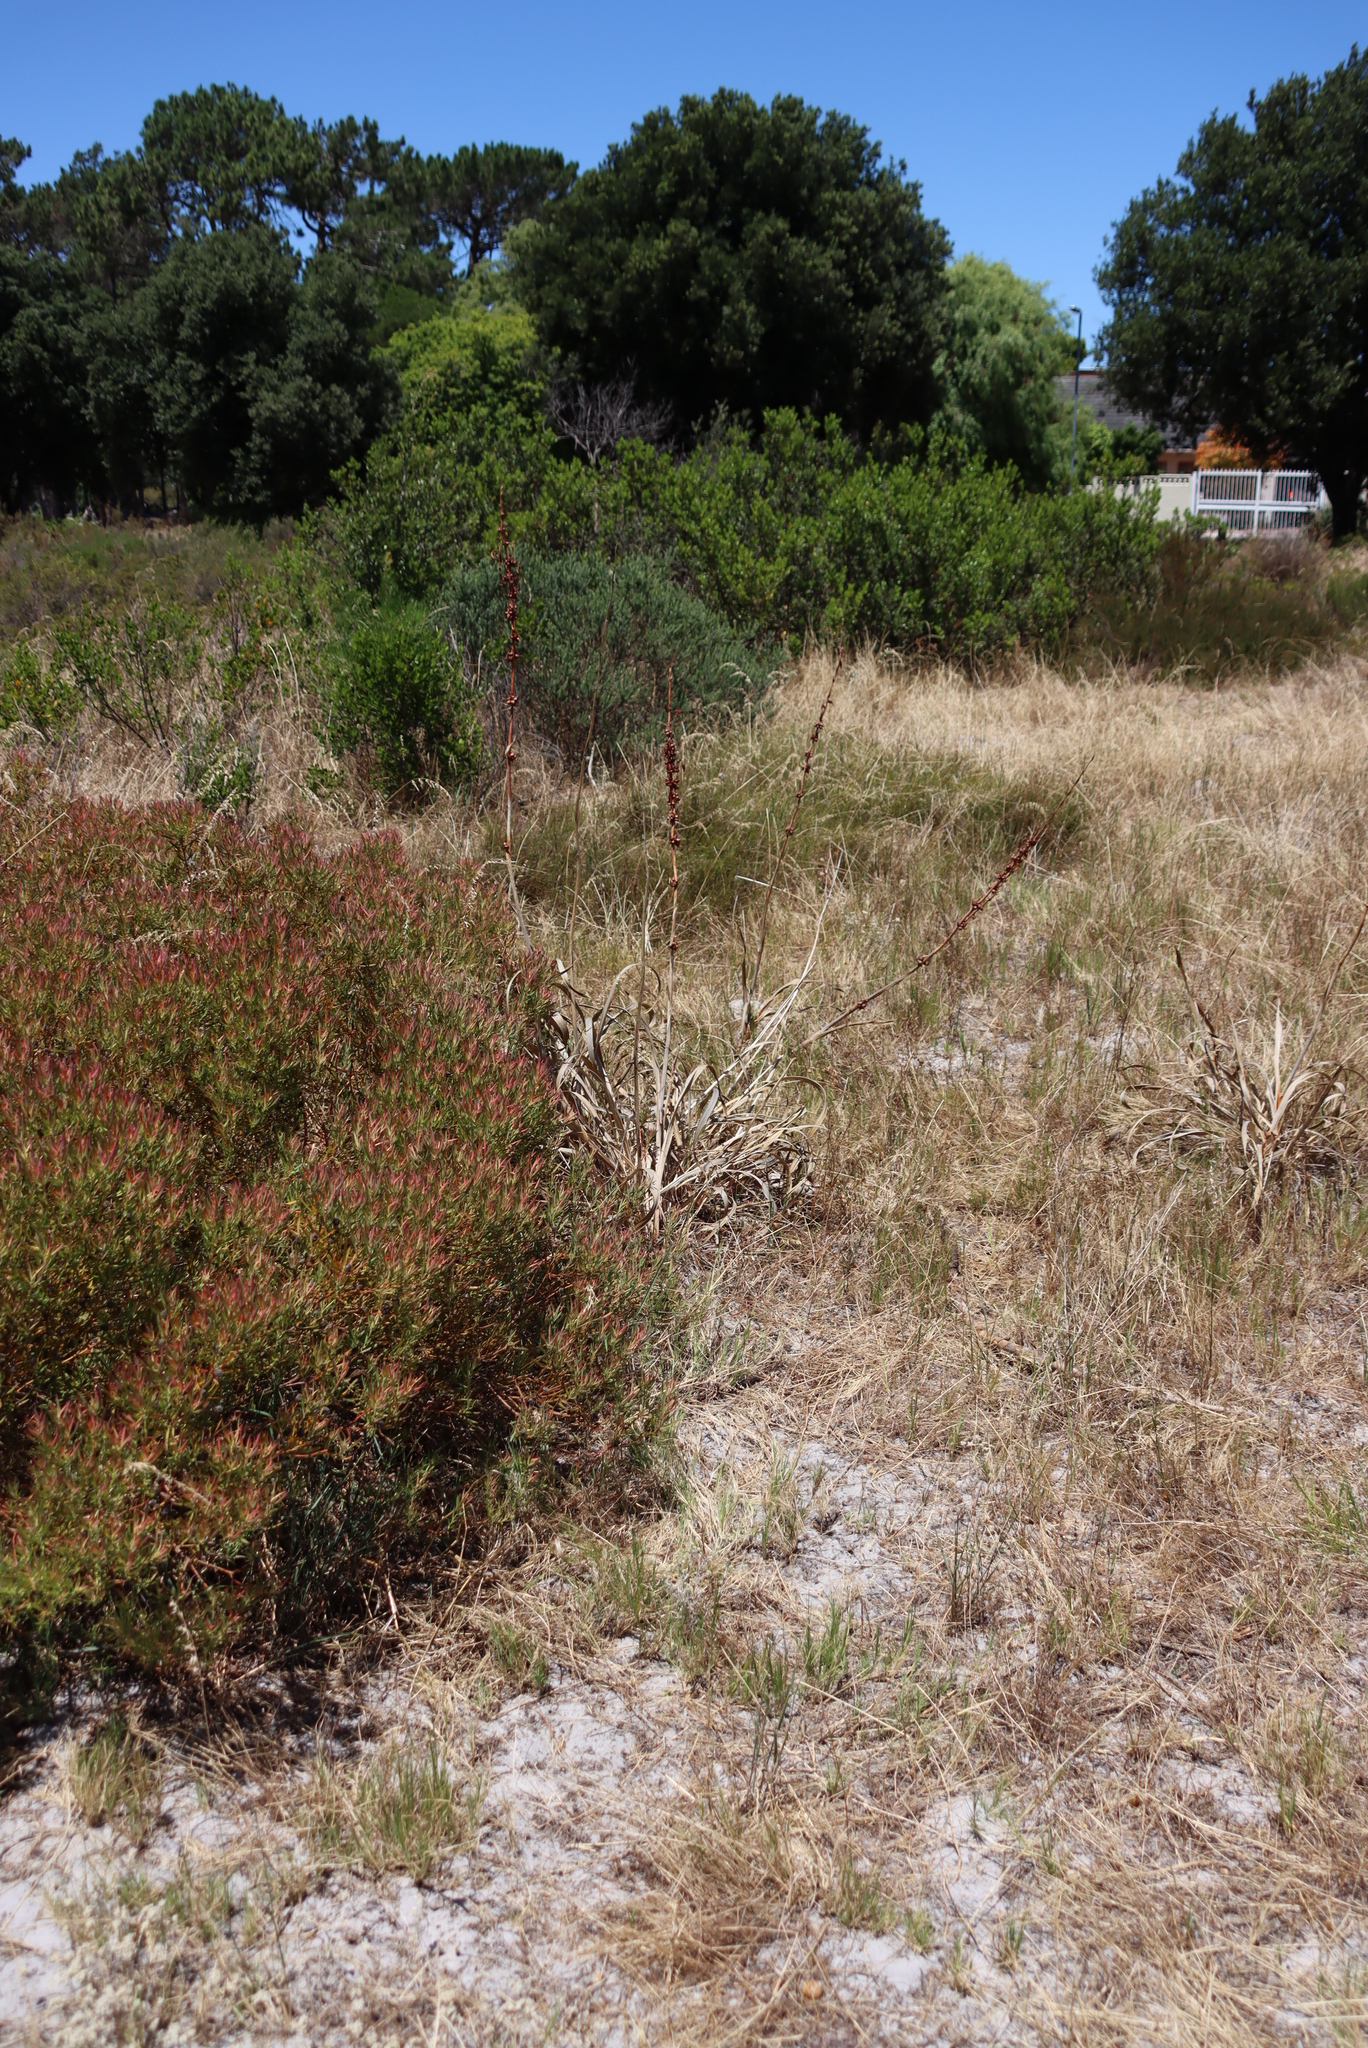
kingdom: Plantae
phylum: Tracheophyta
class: Liliopsida
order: Asparagales
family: Iridaceae
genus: Watsonia
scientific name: Watsonia meriana
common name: Bulbil bugle-lily
